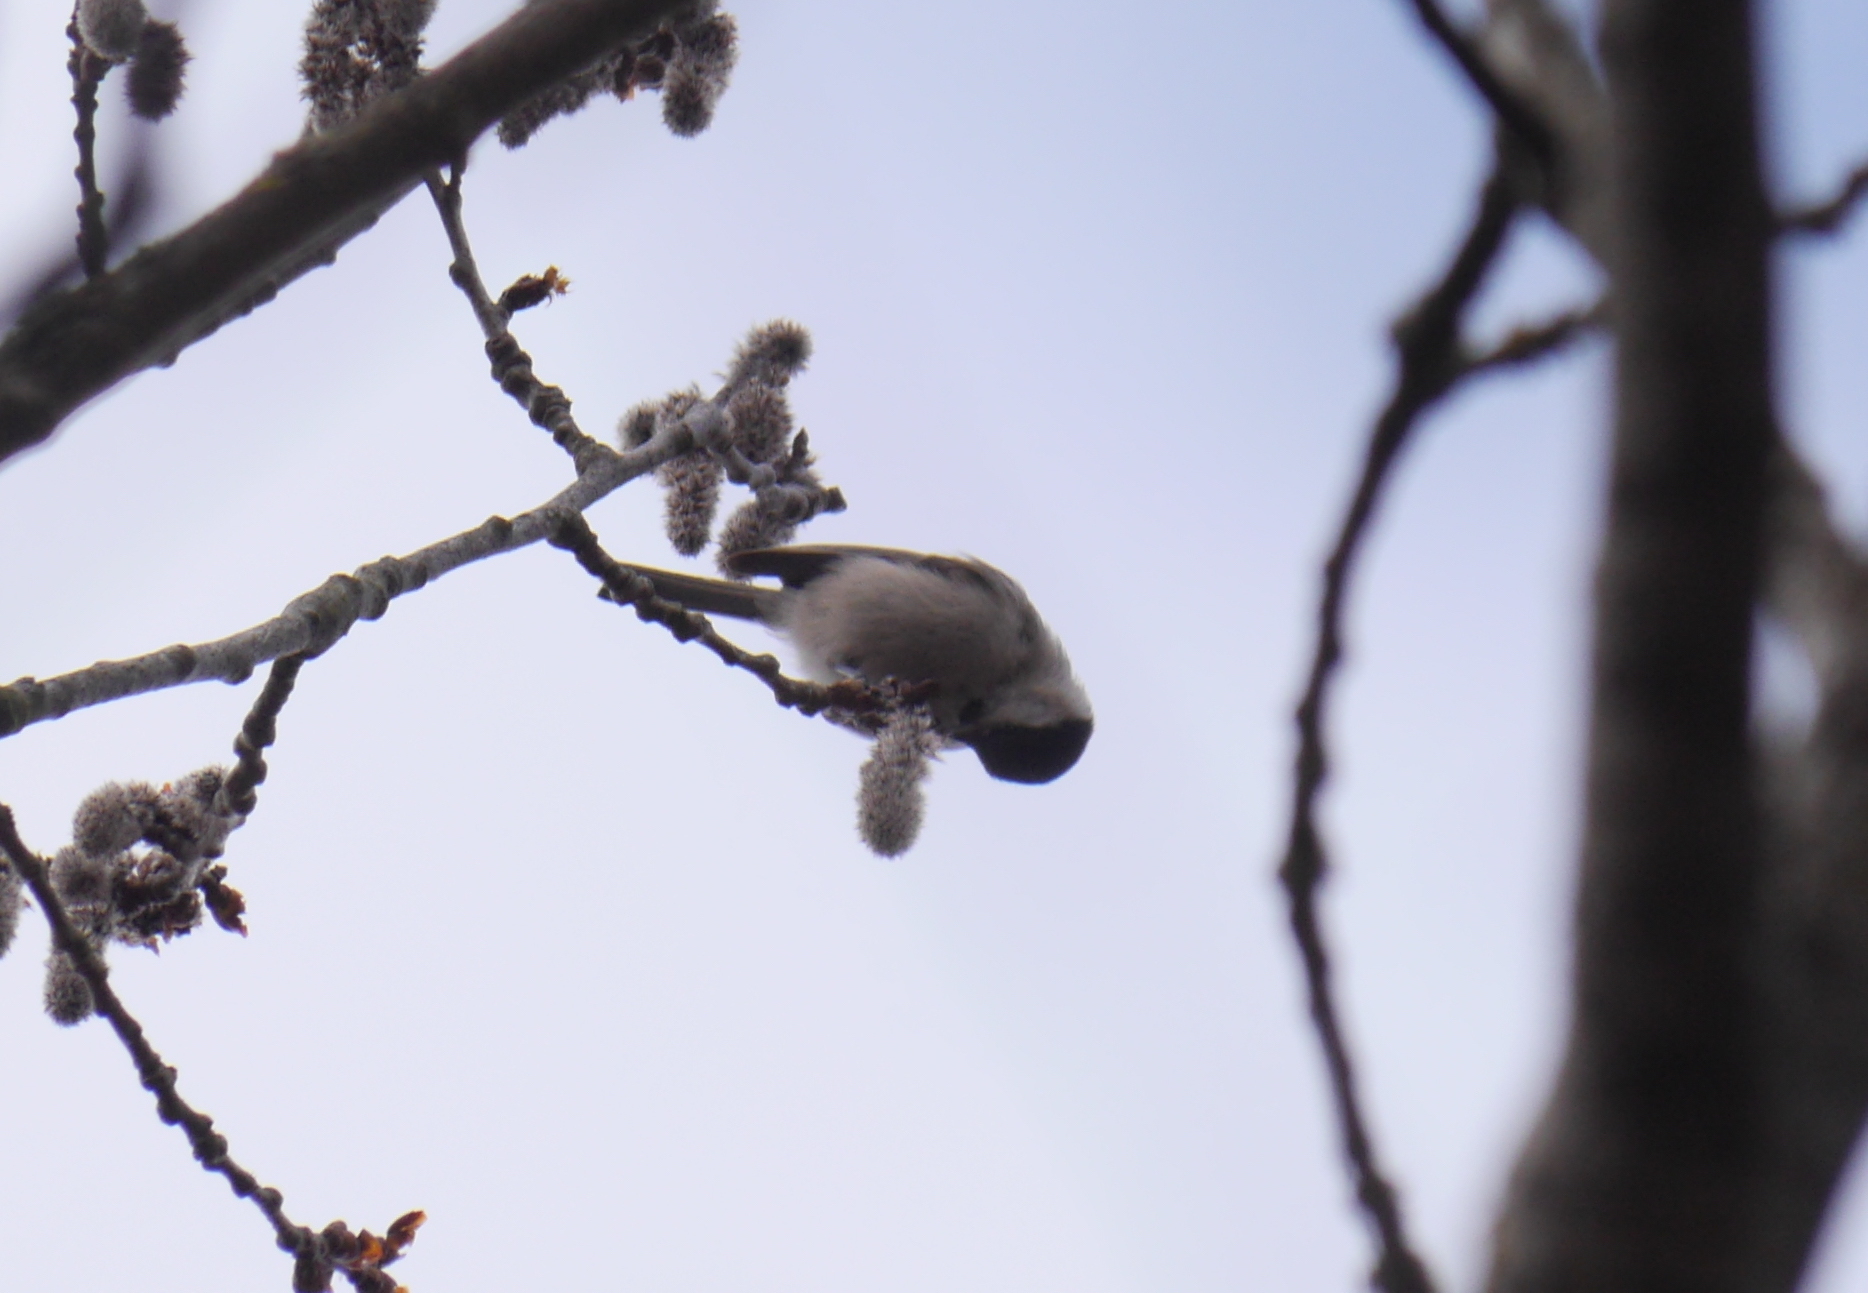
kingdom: Animalia
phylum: Chordata
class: Aves
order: Passeriformes
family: Paridae
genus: Poecile
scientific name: Poecile palustris
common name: Marsh tit
